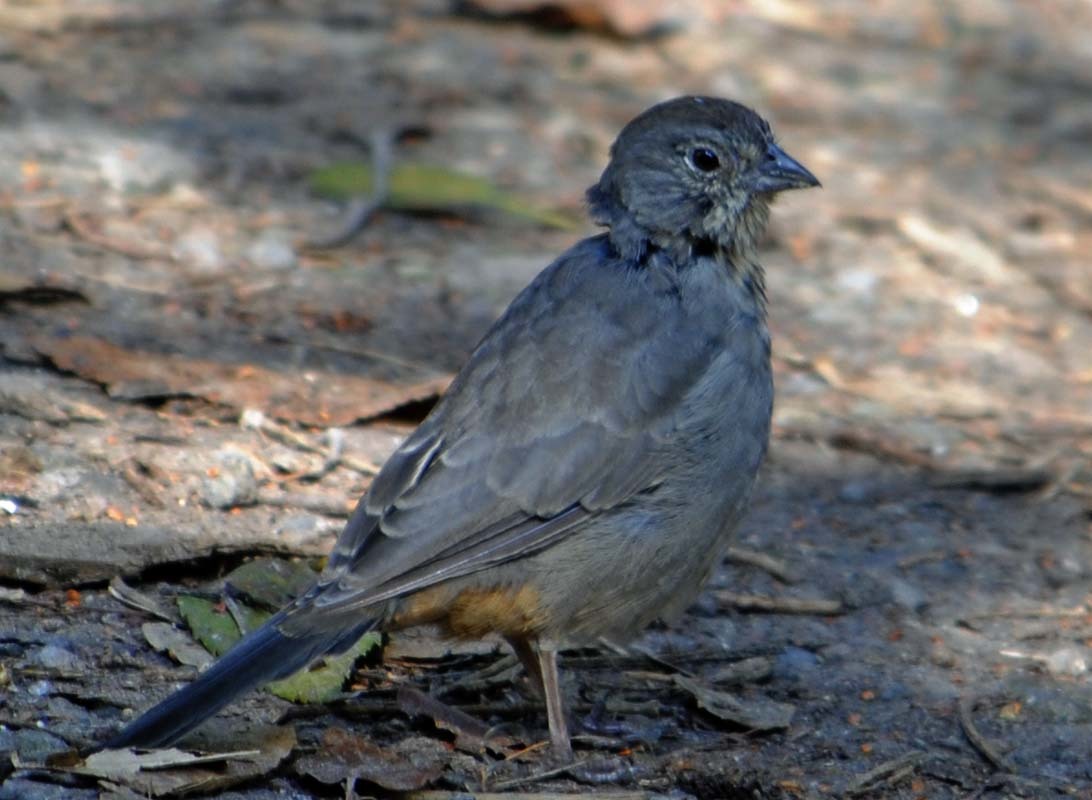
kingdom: Animalia
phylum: Chordata
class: Aves
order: Passeriformes
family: Passerellidae
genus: Melozone
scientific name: Melozone fusca
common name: Canyon towhee
